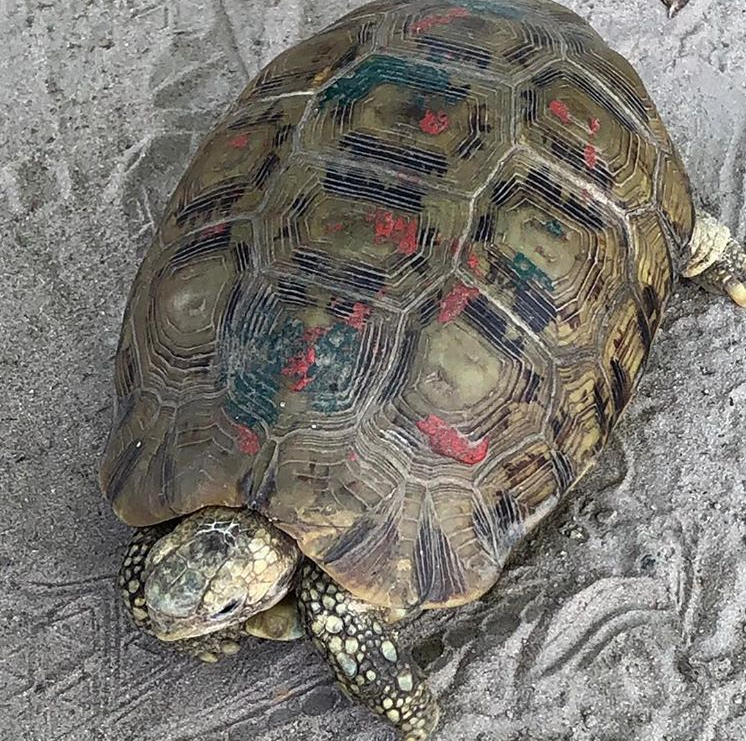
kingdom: Animalia
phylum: Chordata
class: Testudines
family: Testudinidae
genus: Kinixys
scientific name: Kinixys nogueyi
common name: Western hinge-back tortoise
